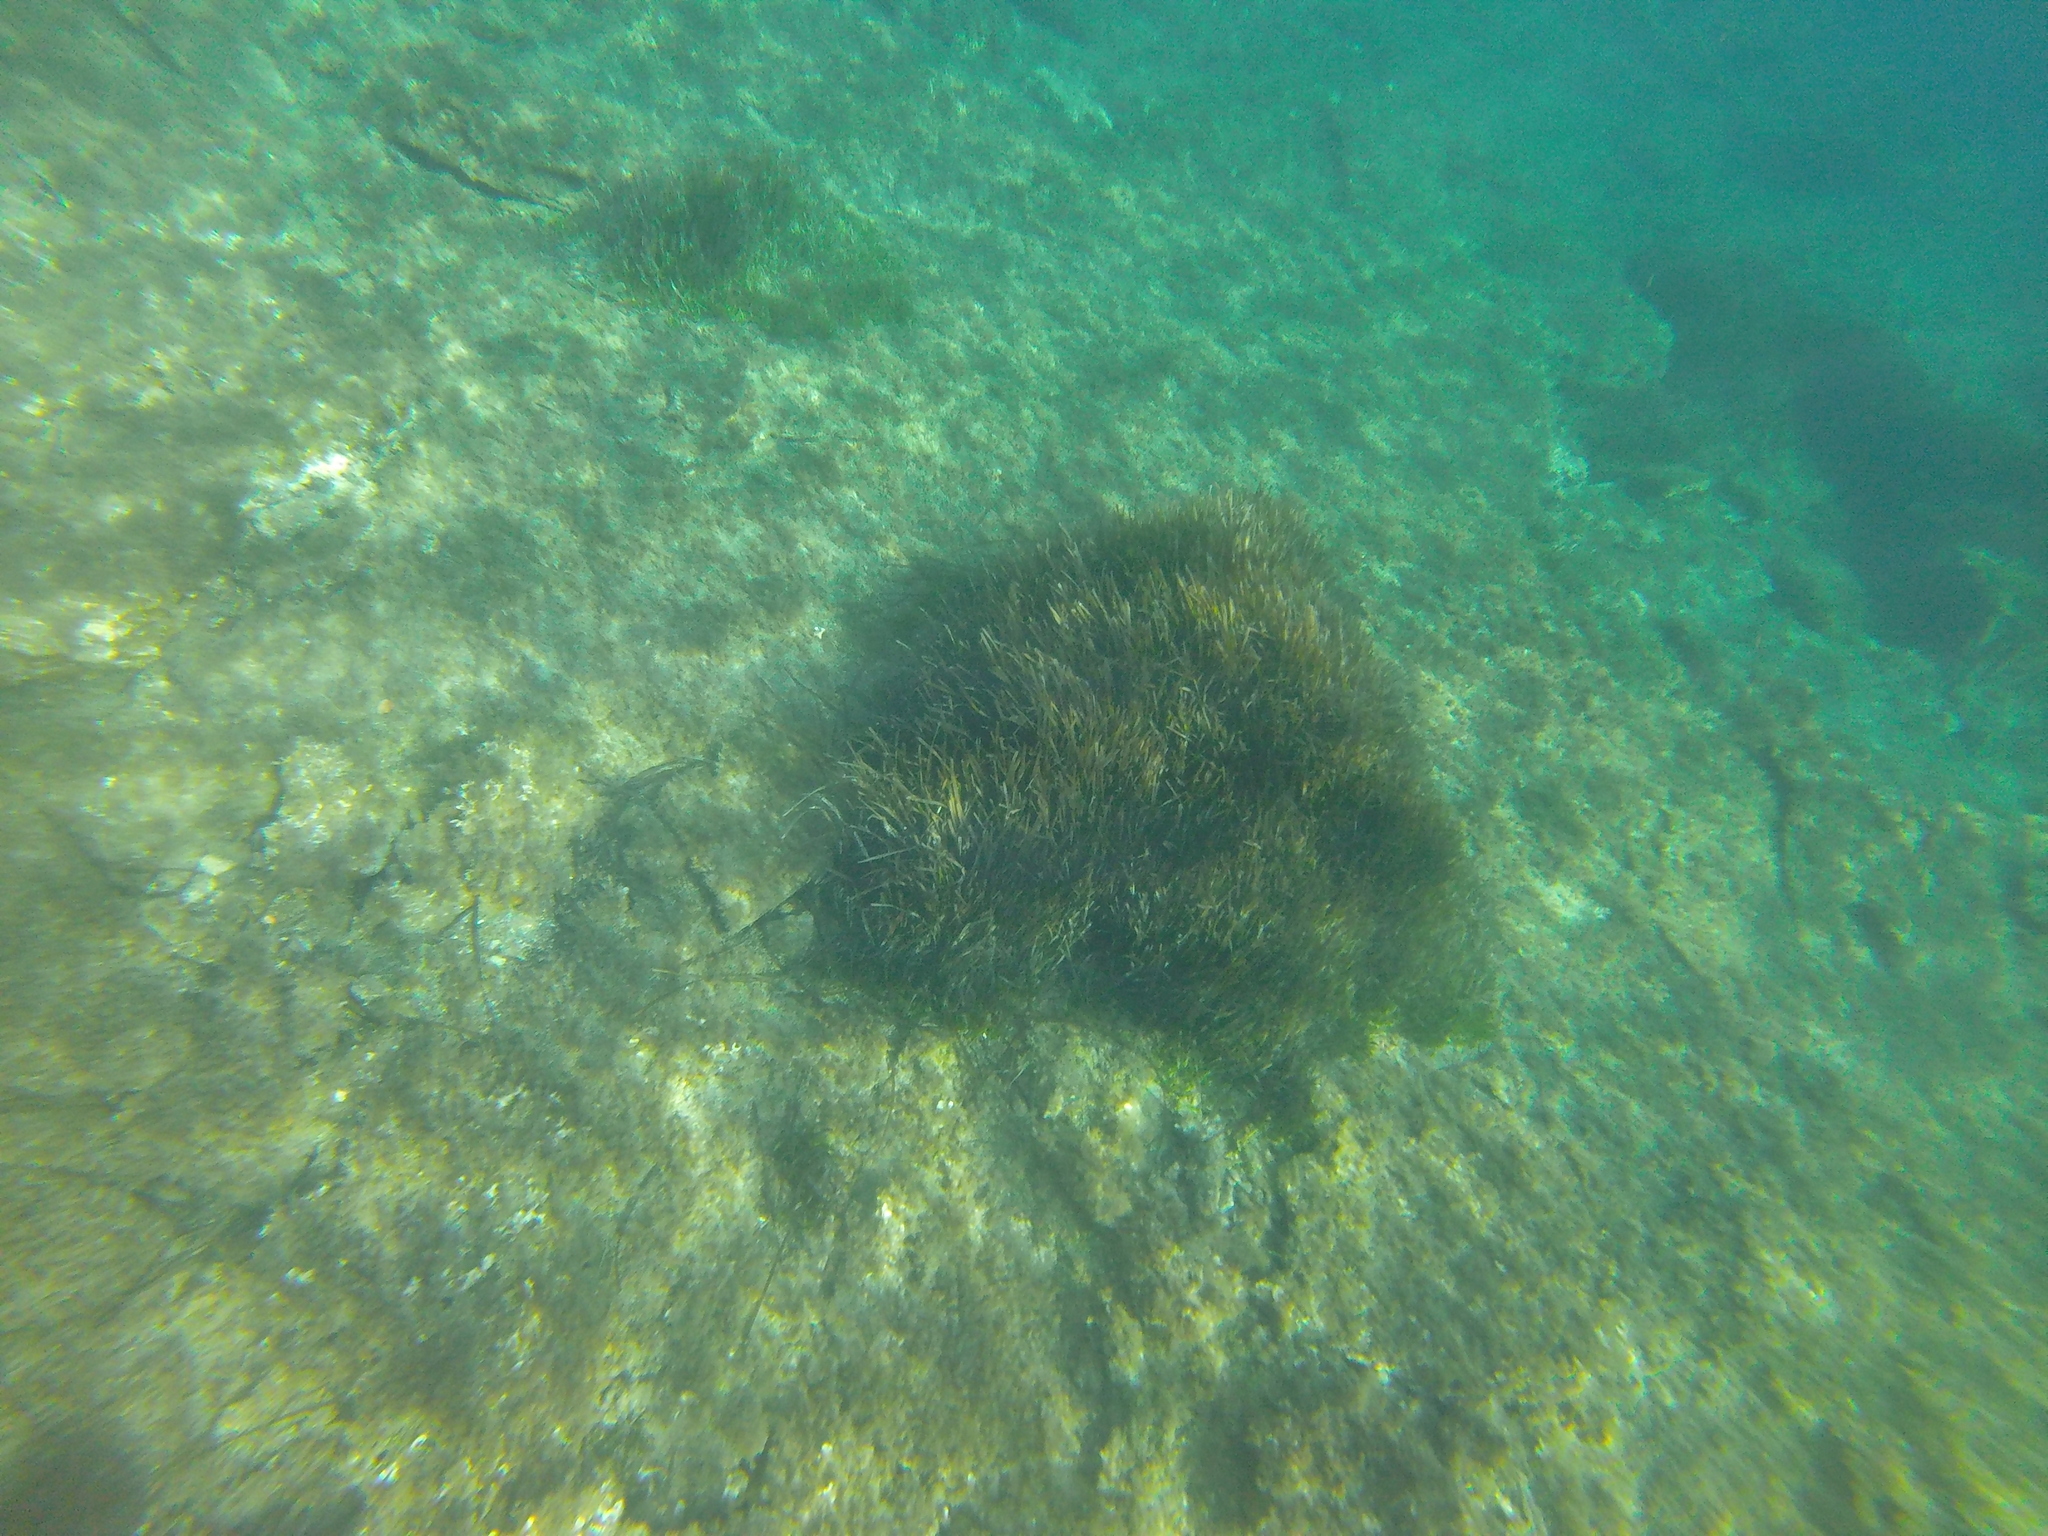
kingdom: Plantae
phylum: Tracheophyta
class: Liliopsida
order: Alismatales
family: Posidoniaceae
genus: Posidonia
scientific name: Posidonia oceanica
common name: Mediterranean tapeweed
